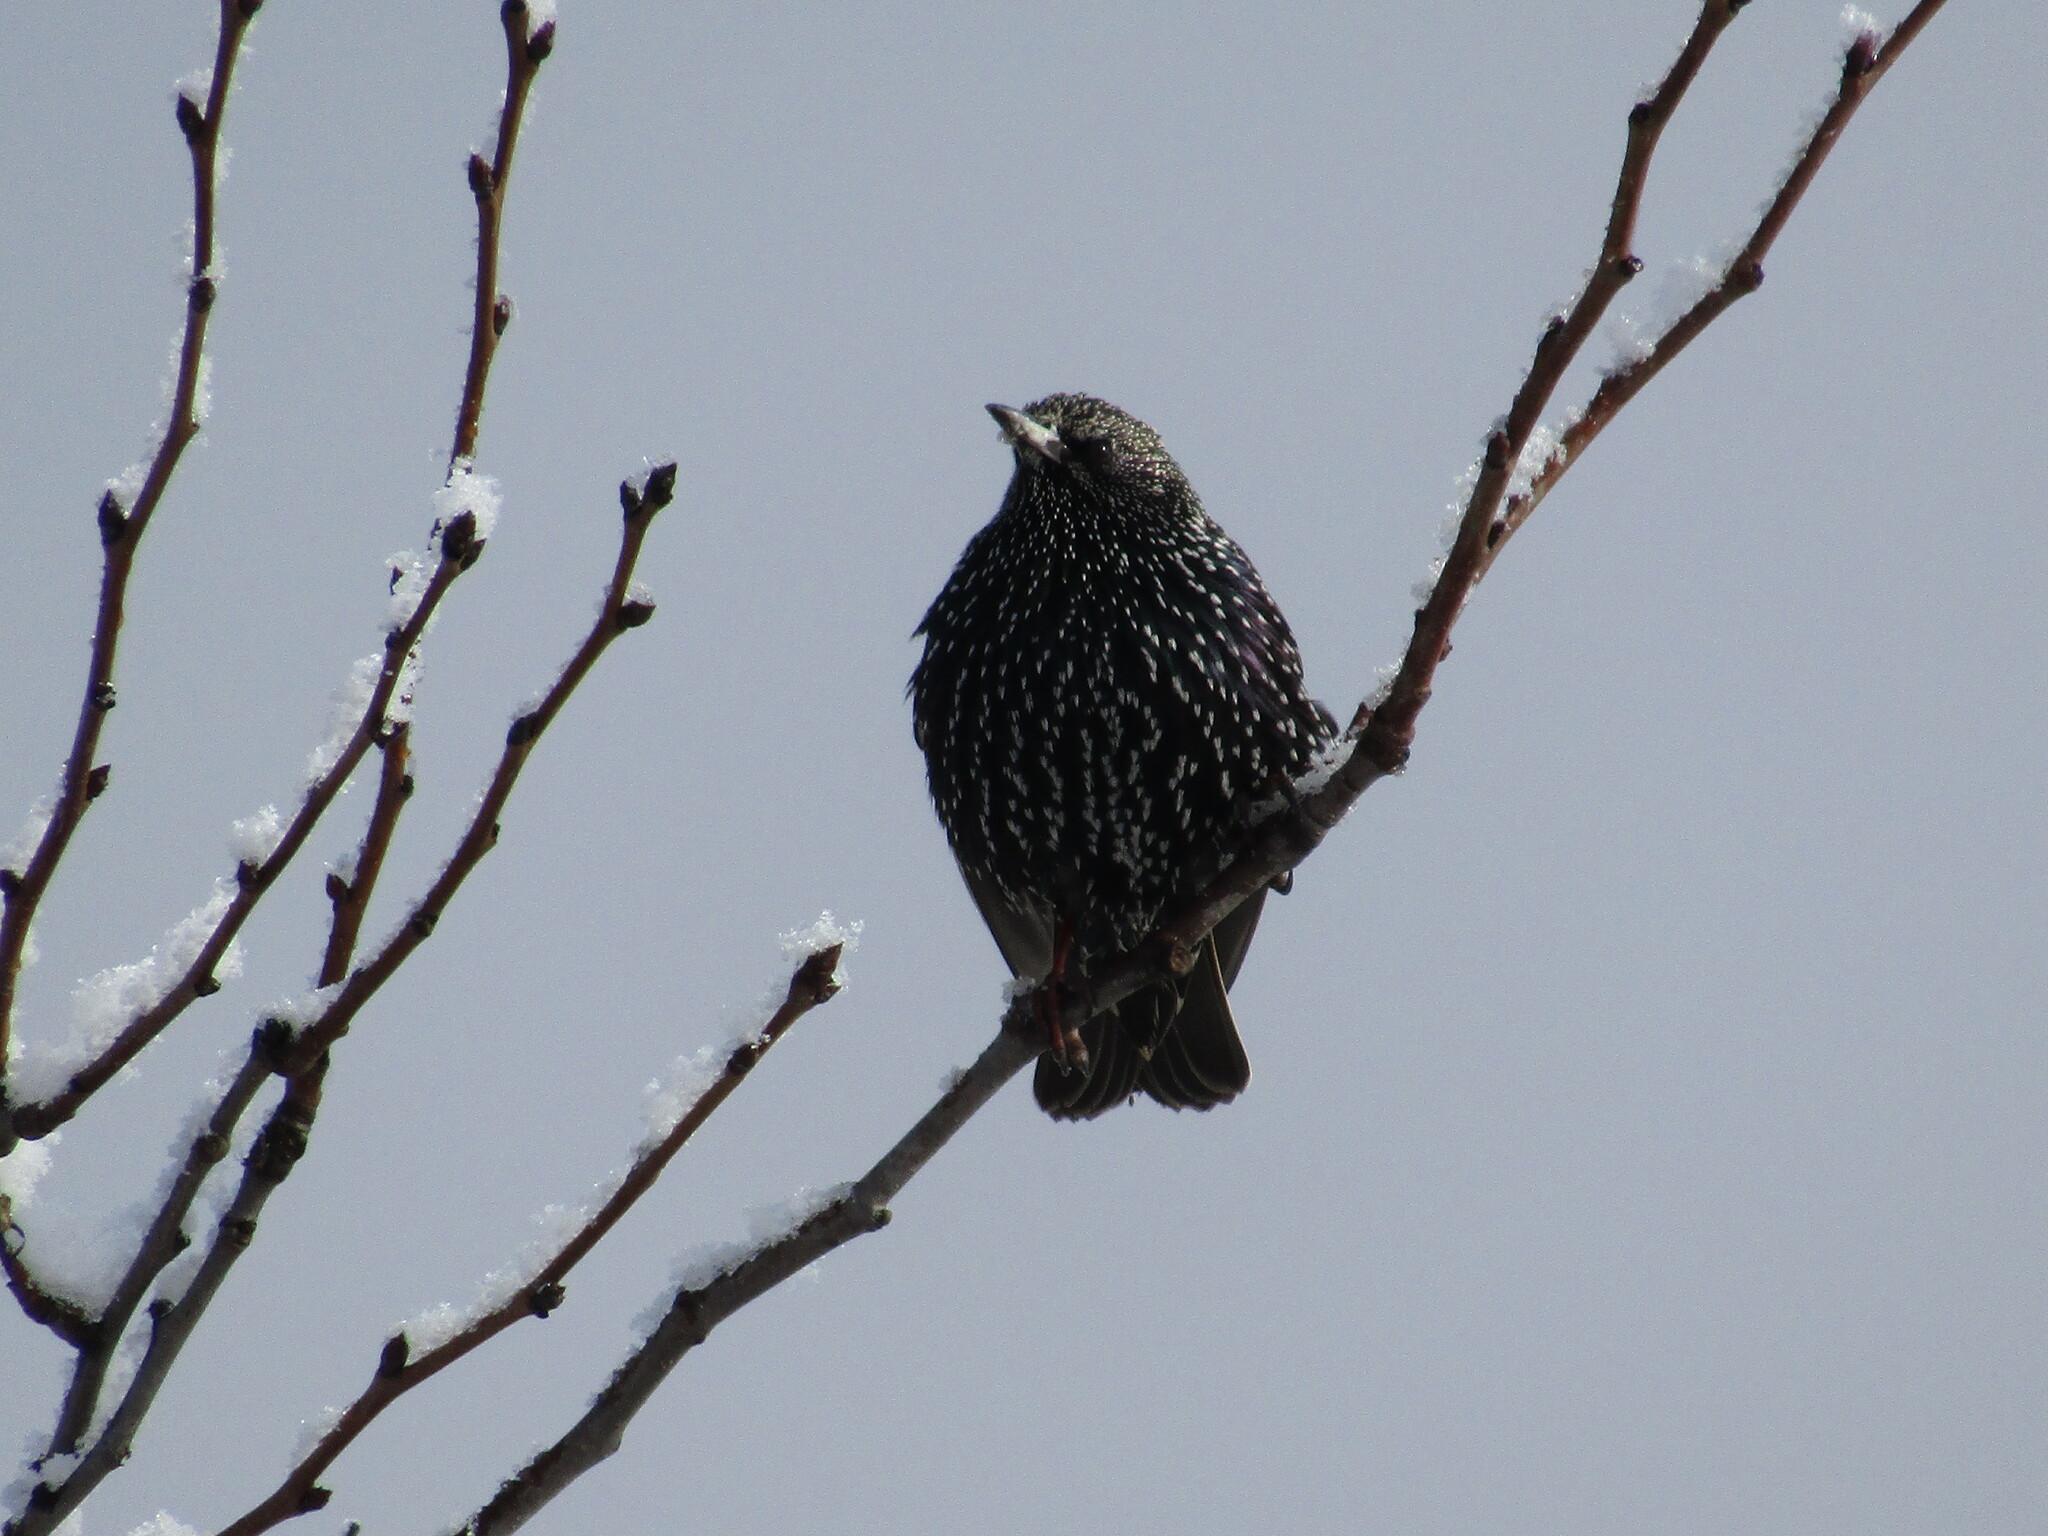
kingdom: Animalia
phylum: Chordata
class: Aves
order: Passeriformes
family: Sturnidae
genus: Sturnus
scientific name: Sturnus vulgaris
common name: Common starling
